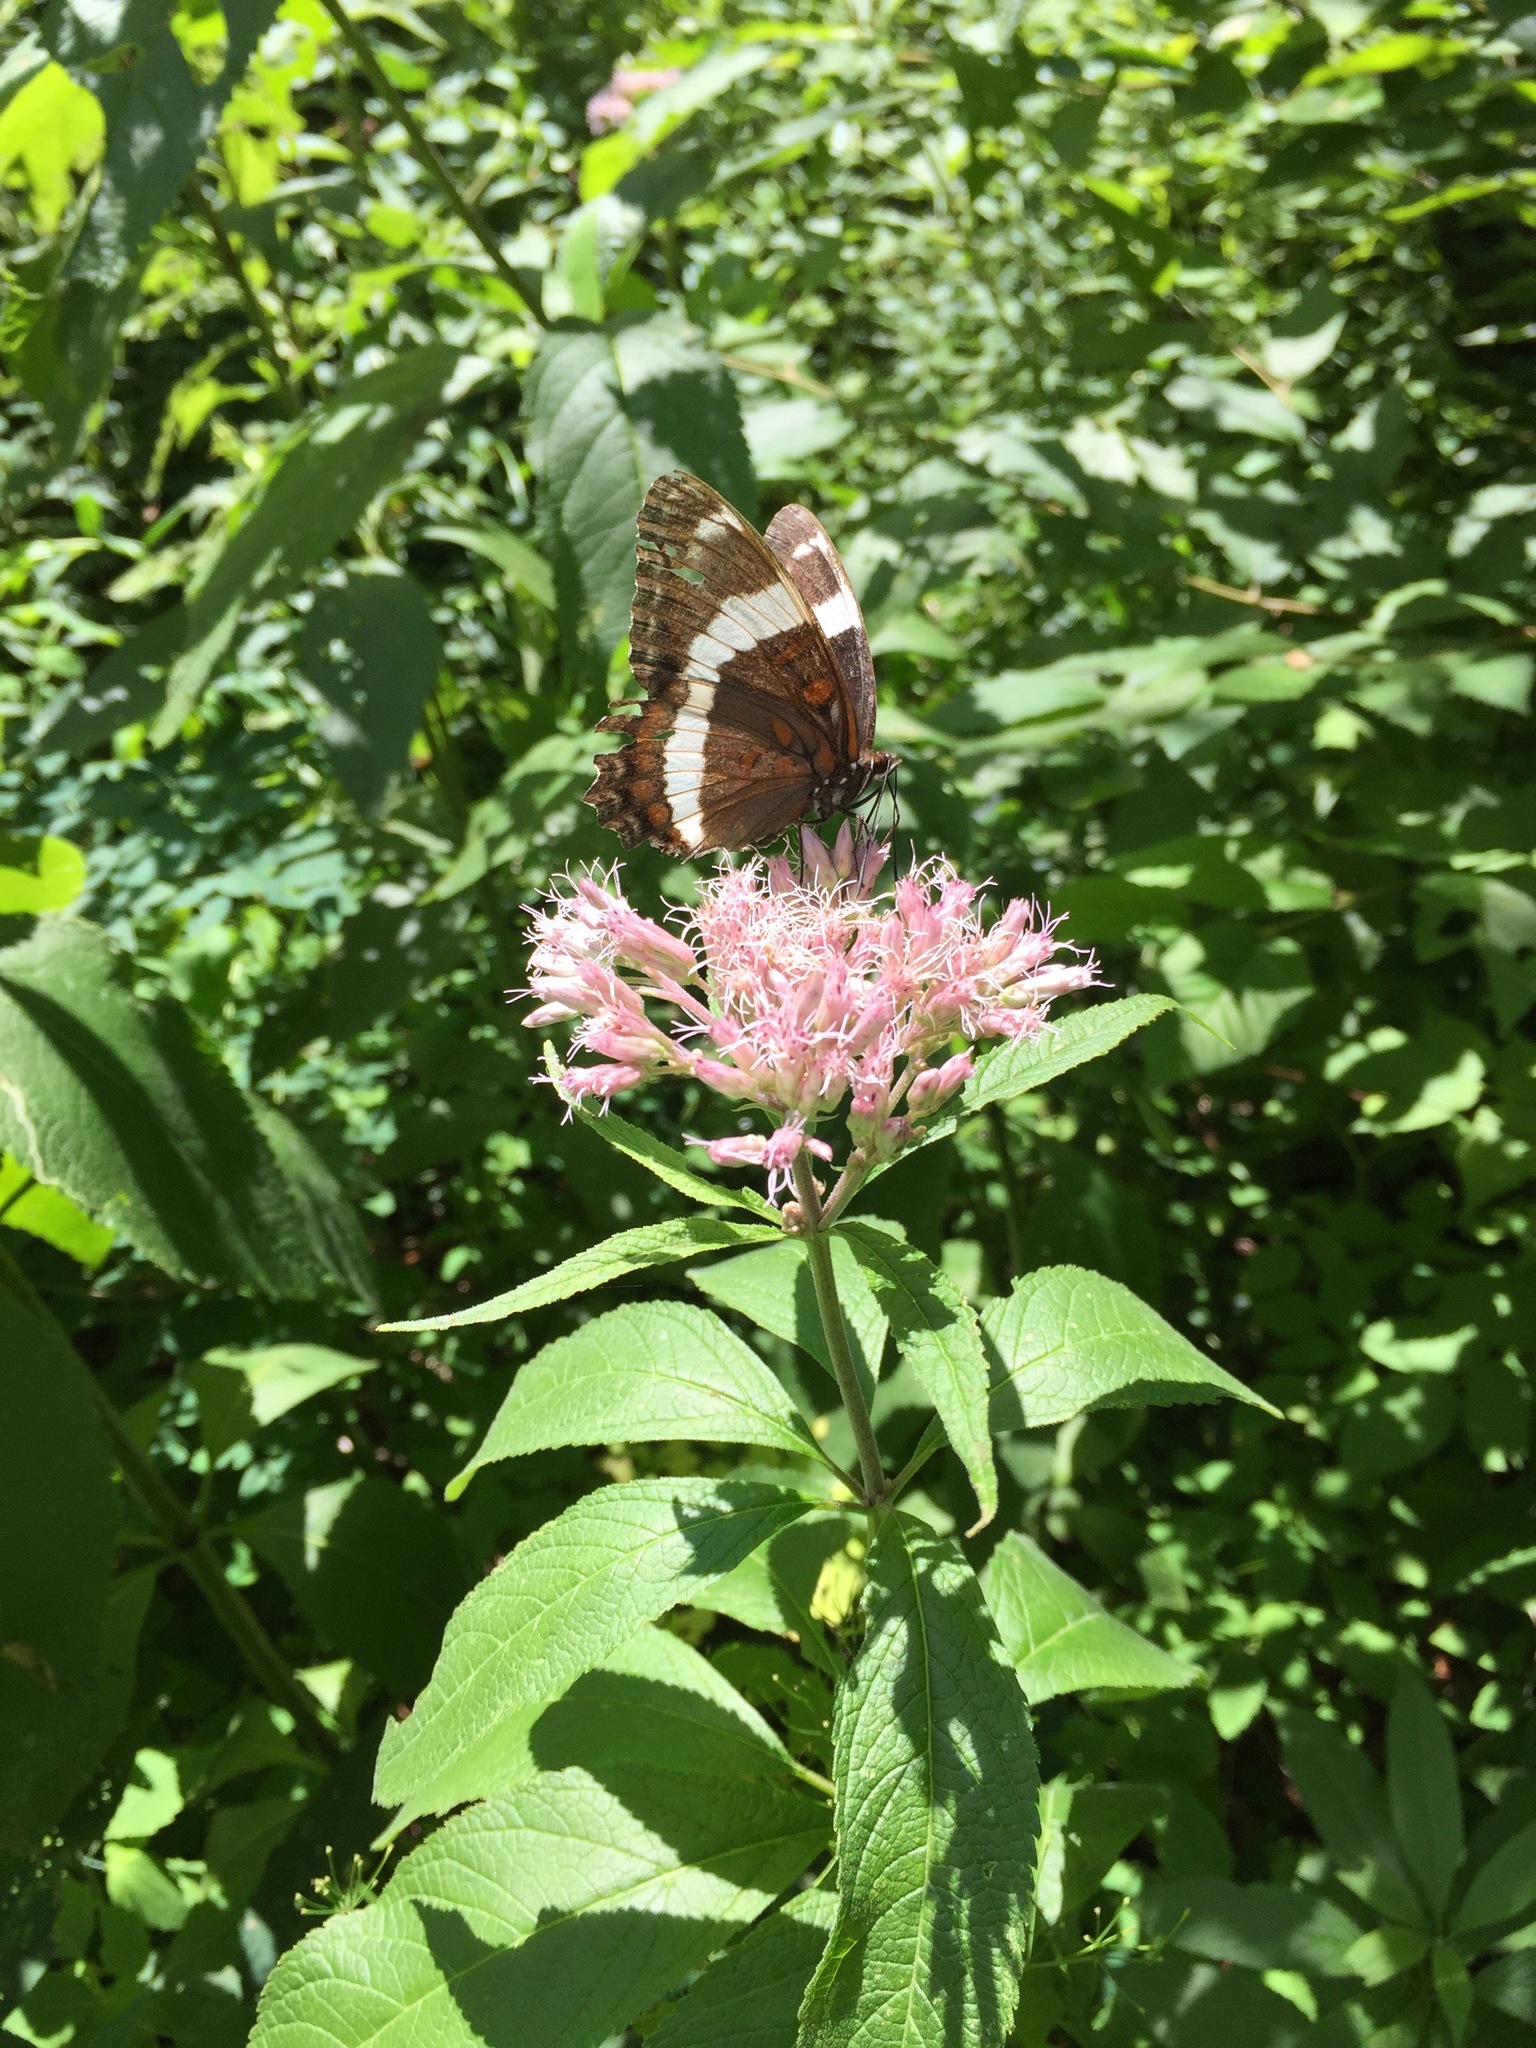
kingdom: Animalia
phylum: Arthropoda
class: Insecta
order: Lepidoptera
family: Nymphalidae
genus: Limenitis
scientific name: Limenitis arthemis
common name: Red-spotted admiral
